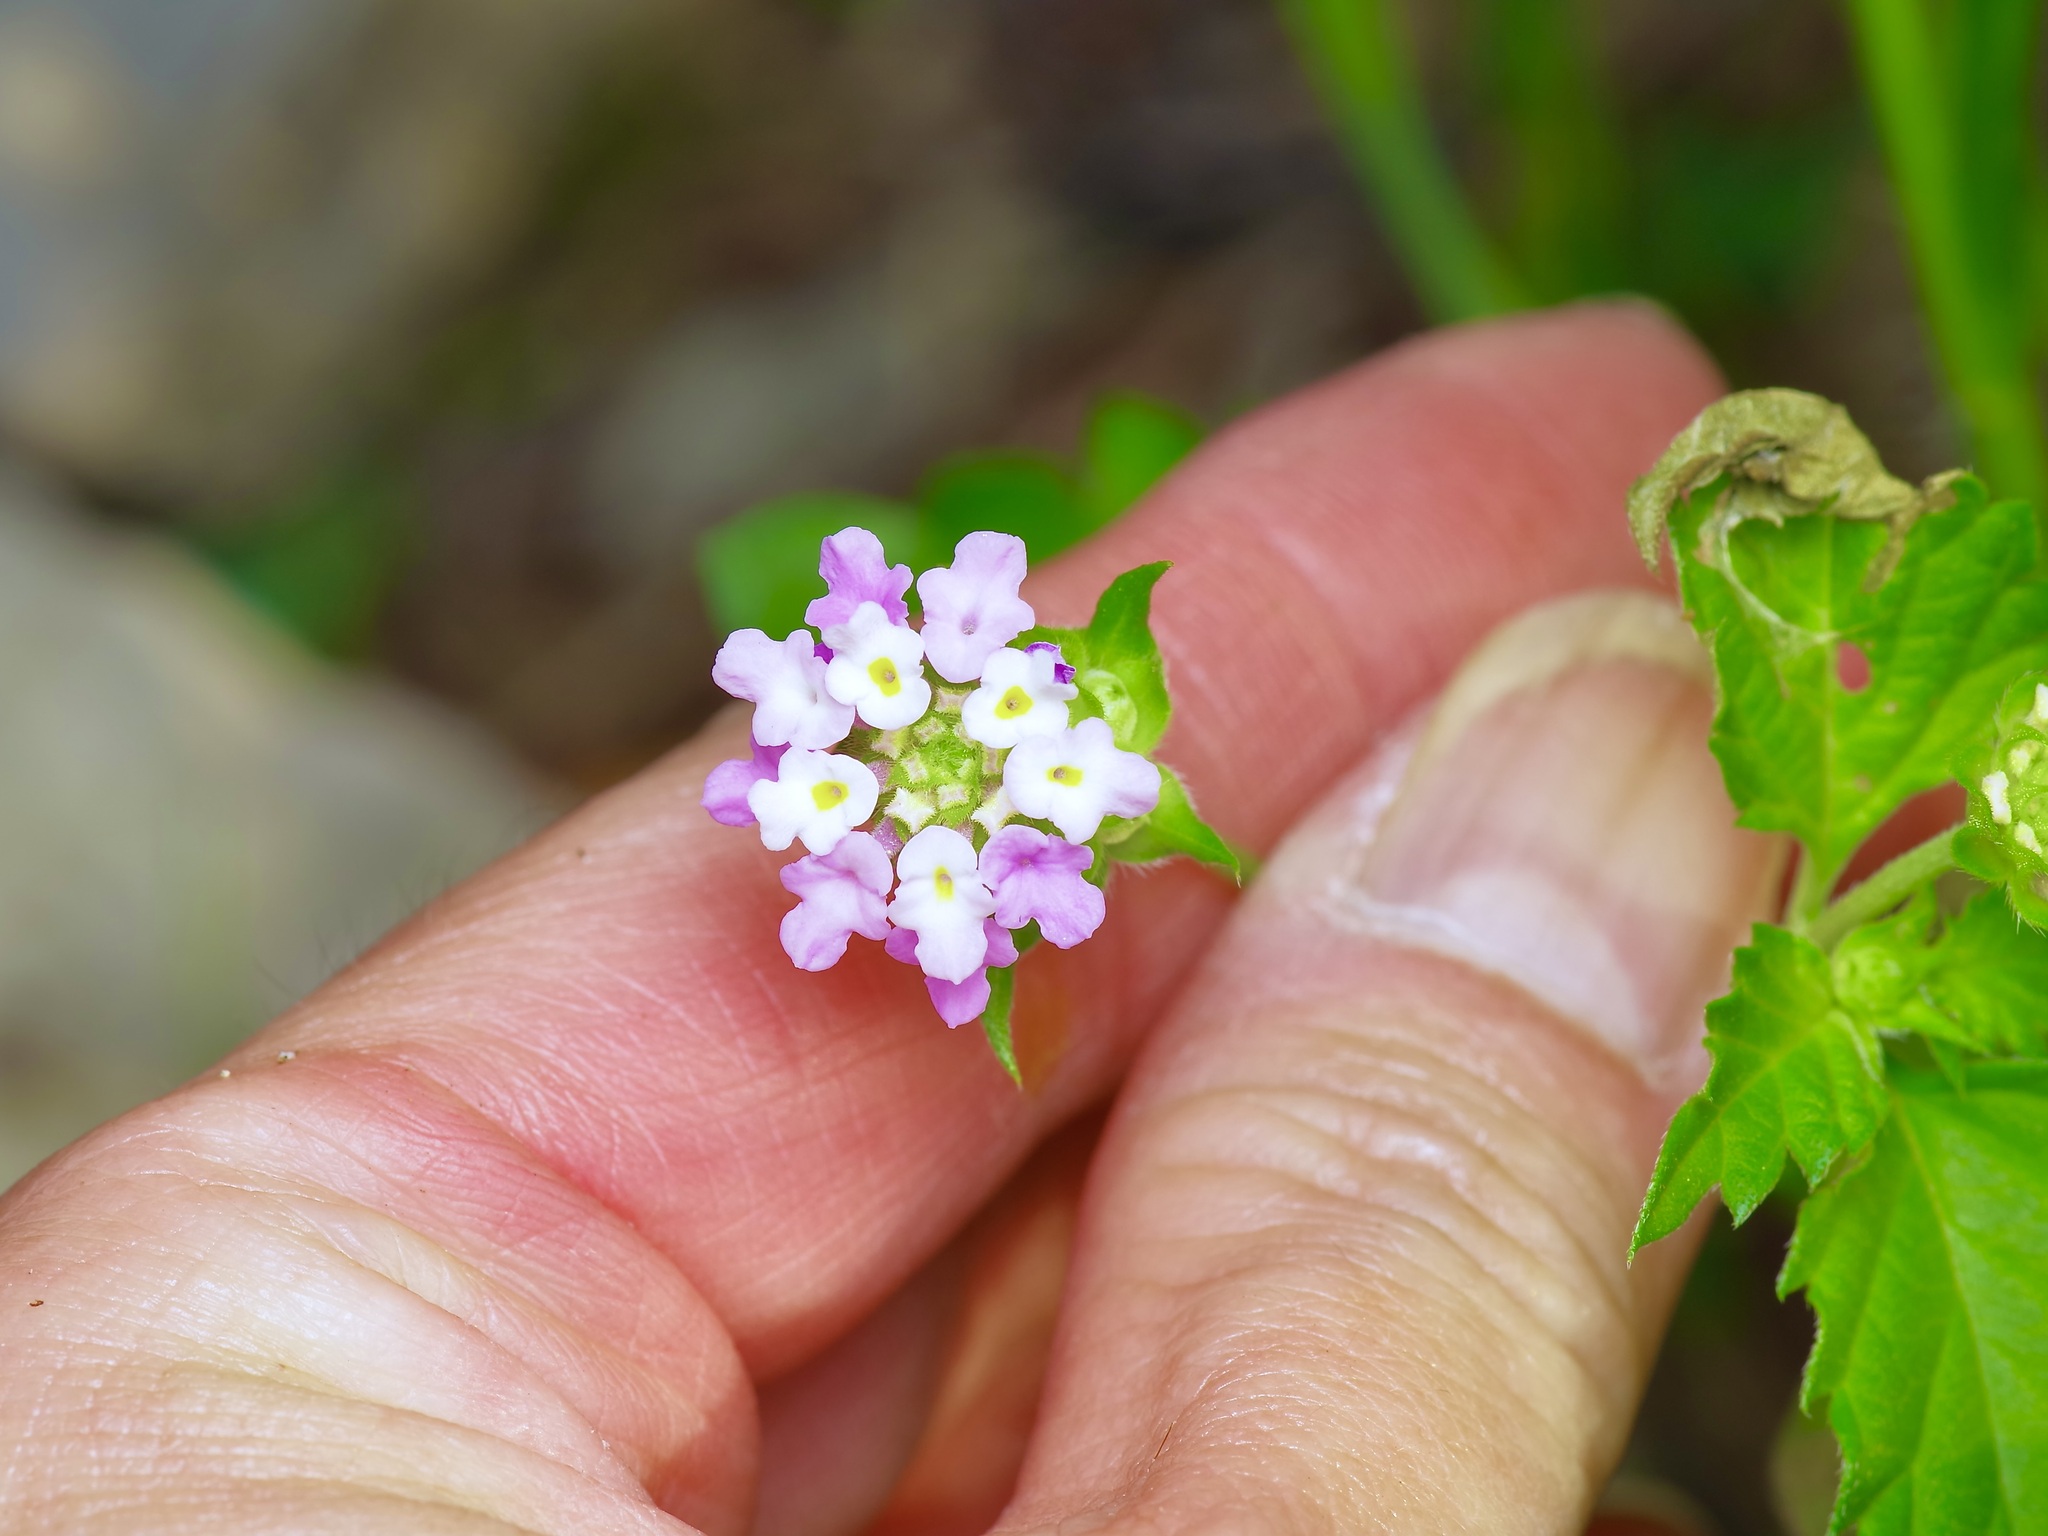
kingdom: Plantae
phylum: Tracheophyta
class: Magnoliopsida
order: Lamiales
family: Verbenaceae
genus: Lantana
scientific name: Lantana achyranthifolia
